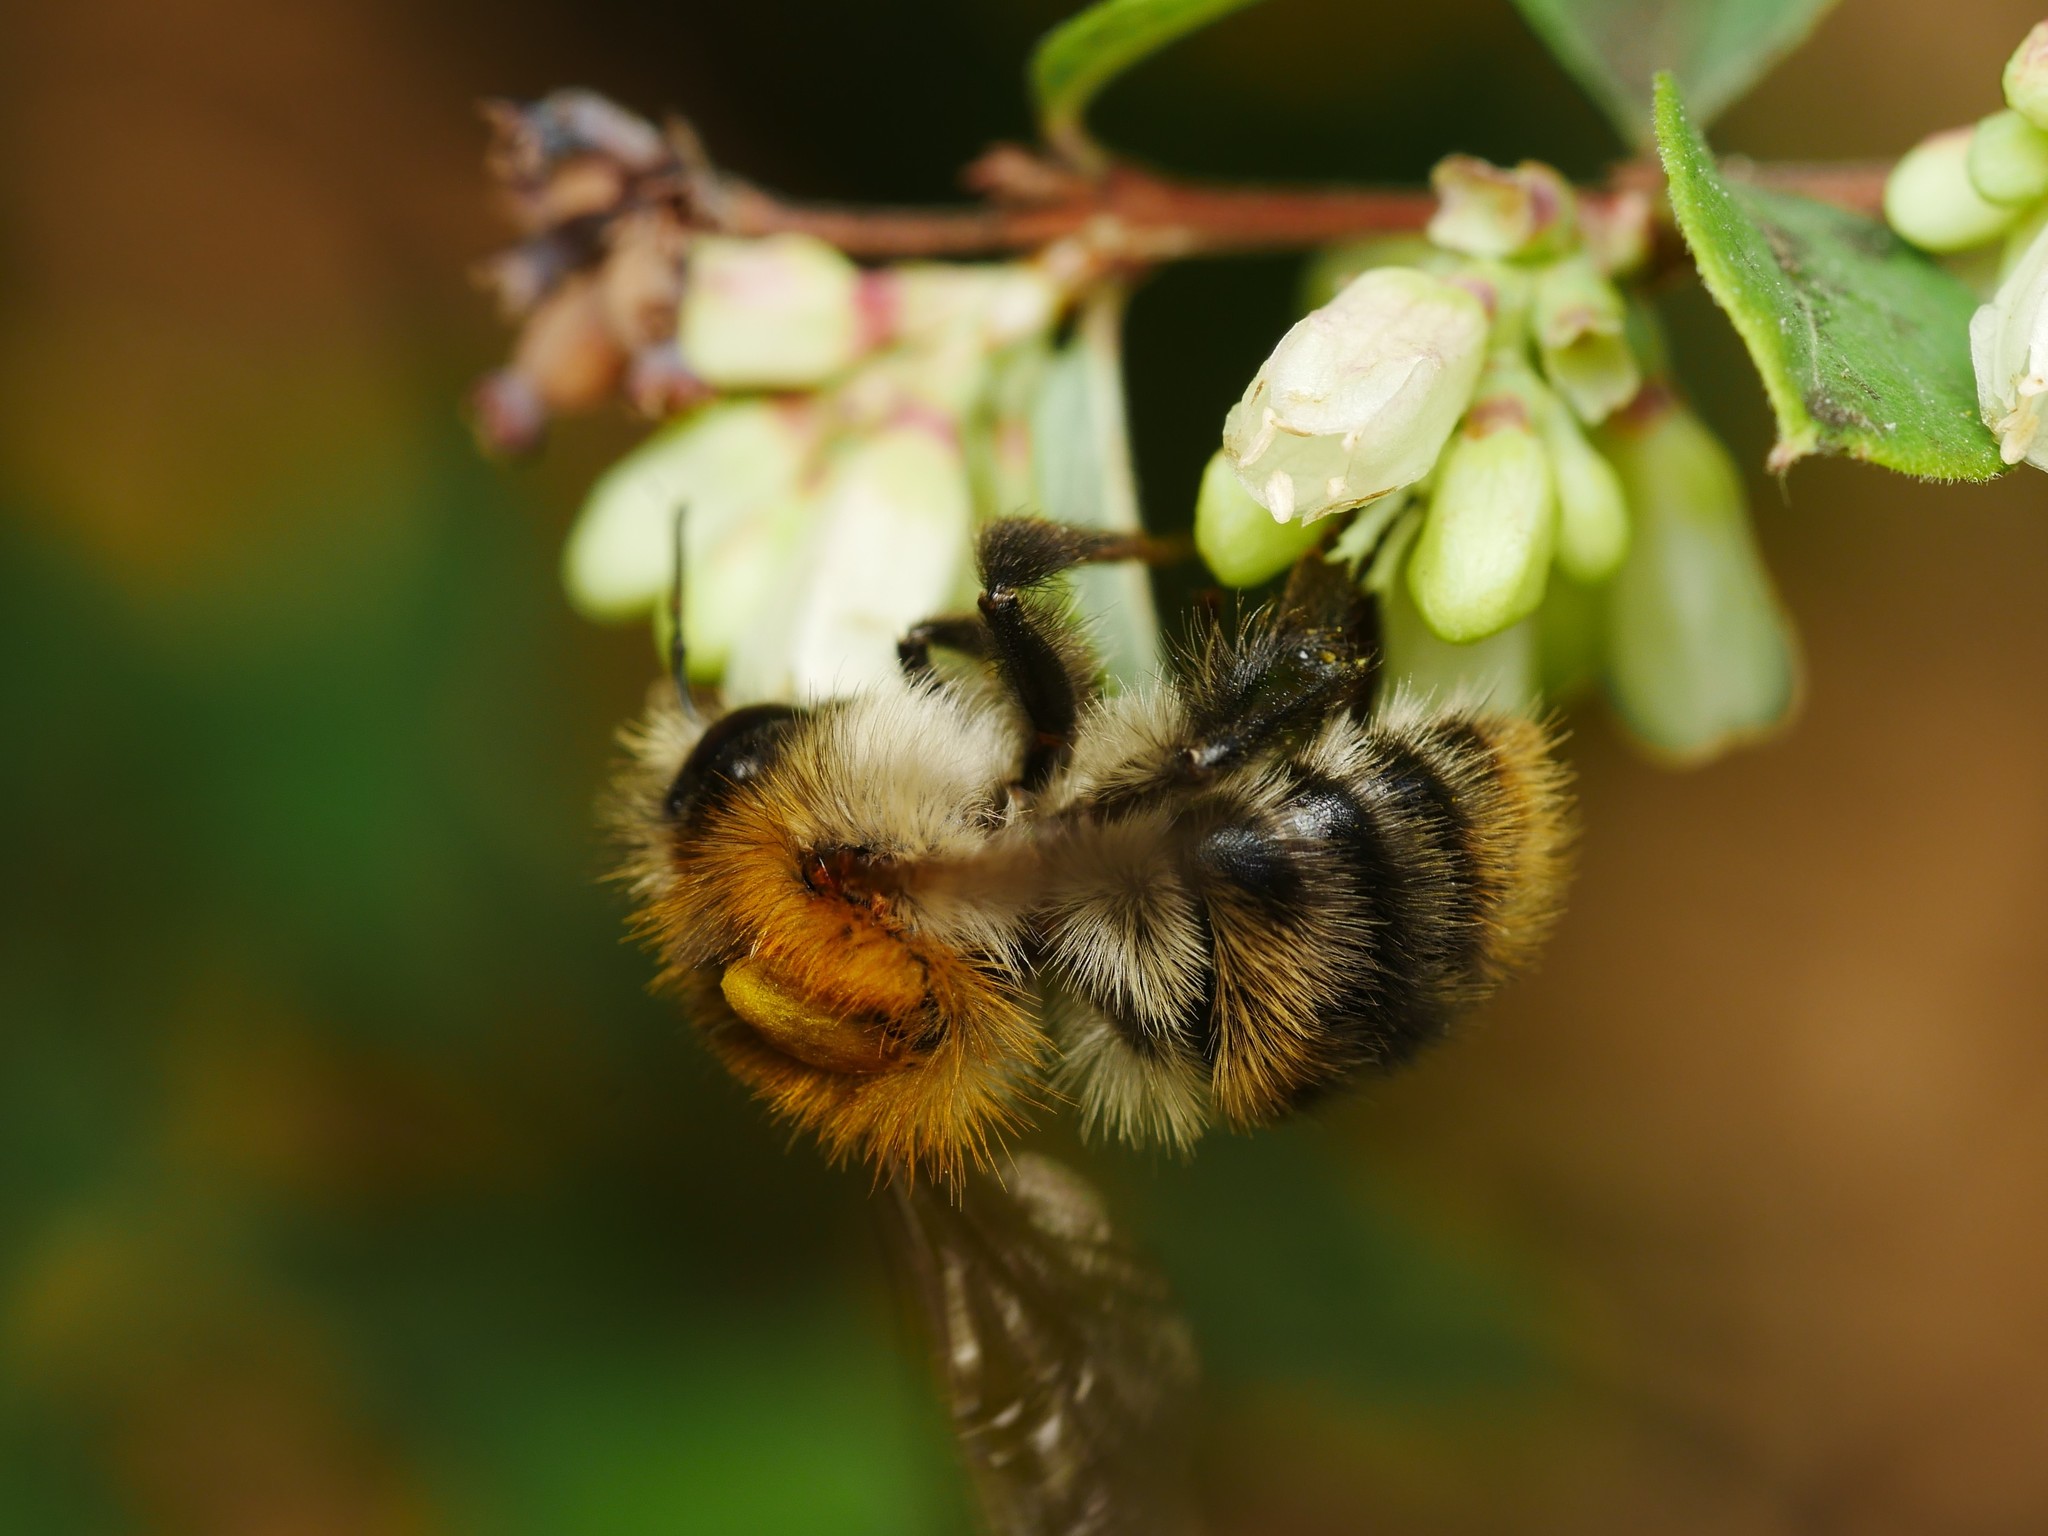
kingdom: Animalia
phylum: Arthropoda
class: Insecta
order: Hymenoptera
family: Apidae
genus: Bombus
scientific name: Bombus pascuorum
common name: Common carder bee
